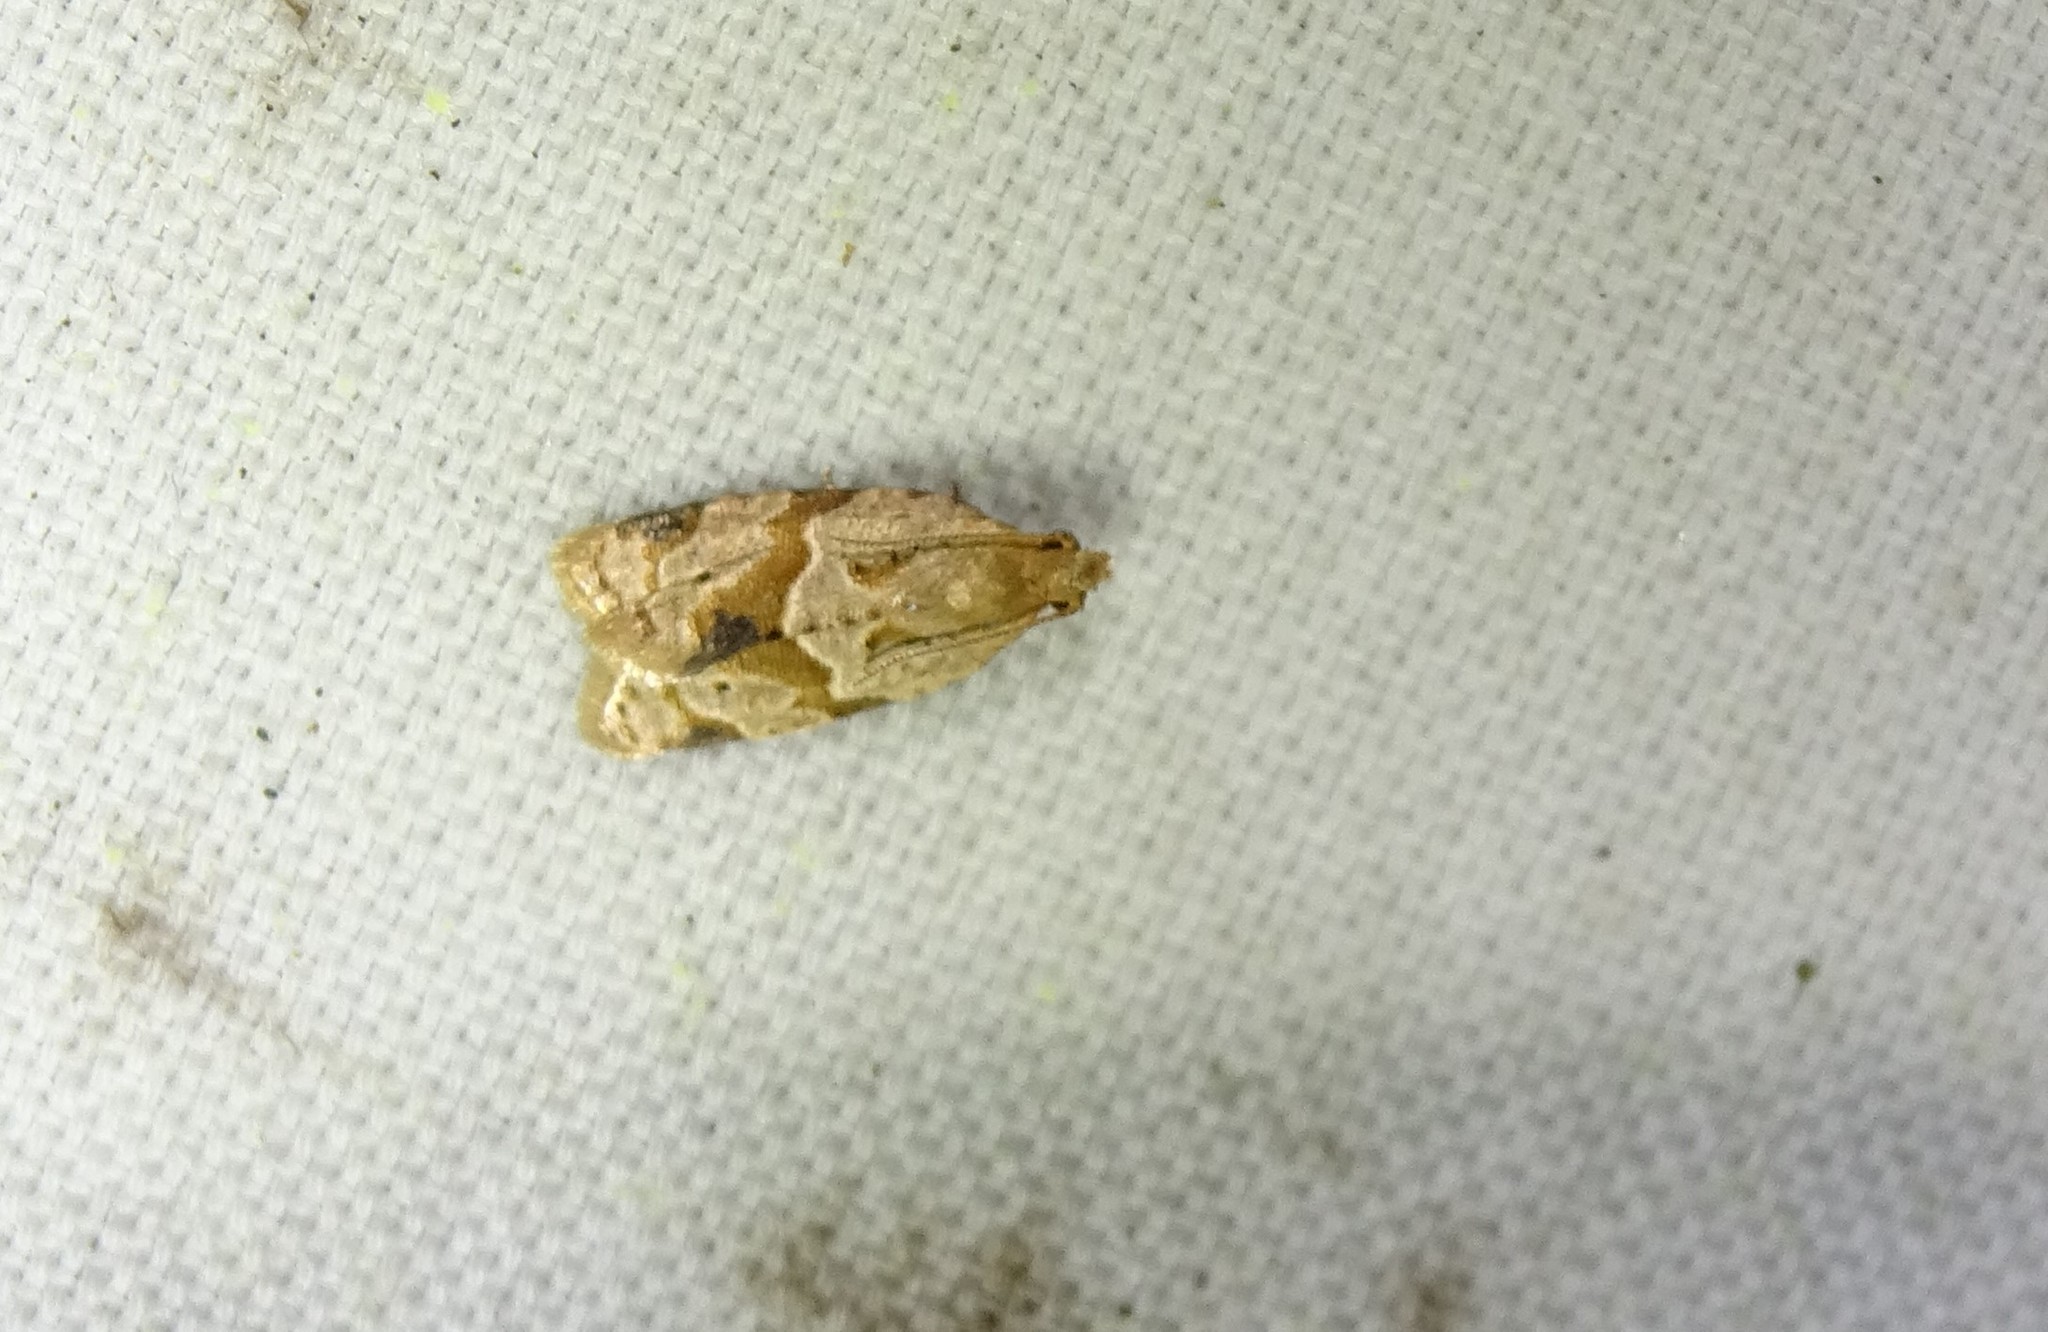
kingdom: Animalia
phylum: Arthropoda
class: Insecta
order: Lepidoptera
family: Tortricidae
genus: Clepsis
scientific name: Clepsis peritana
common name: Garden tortrix
